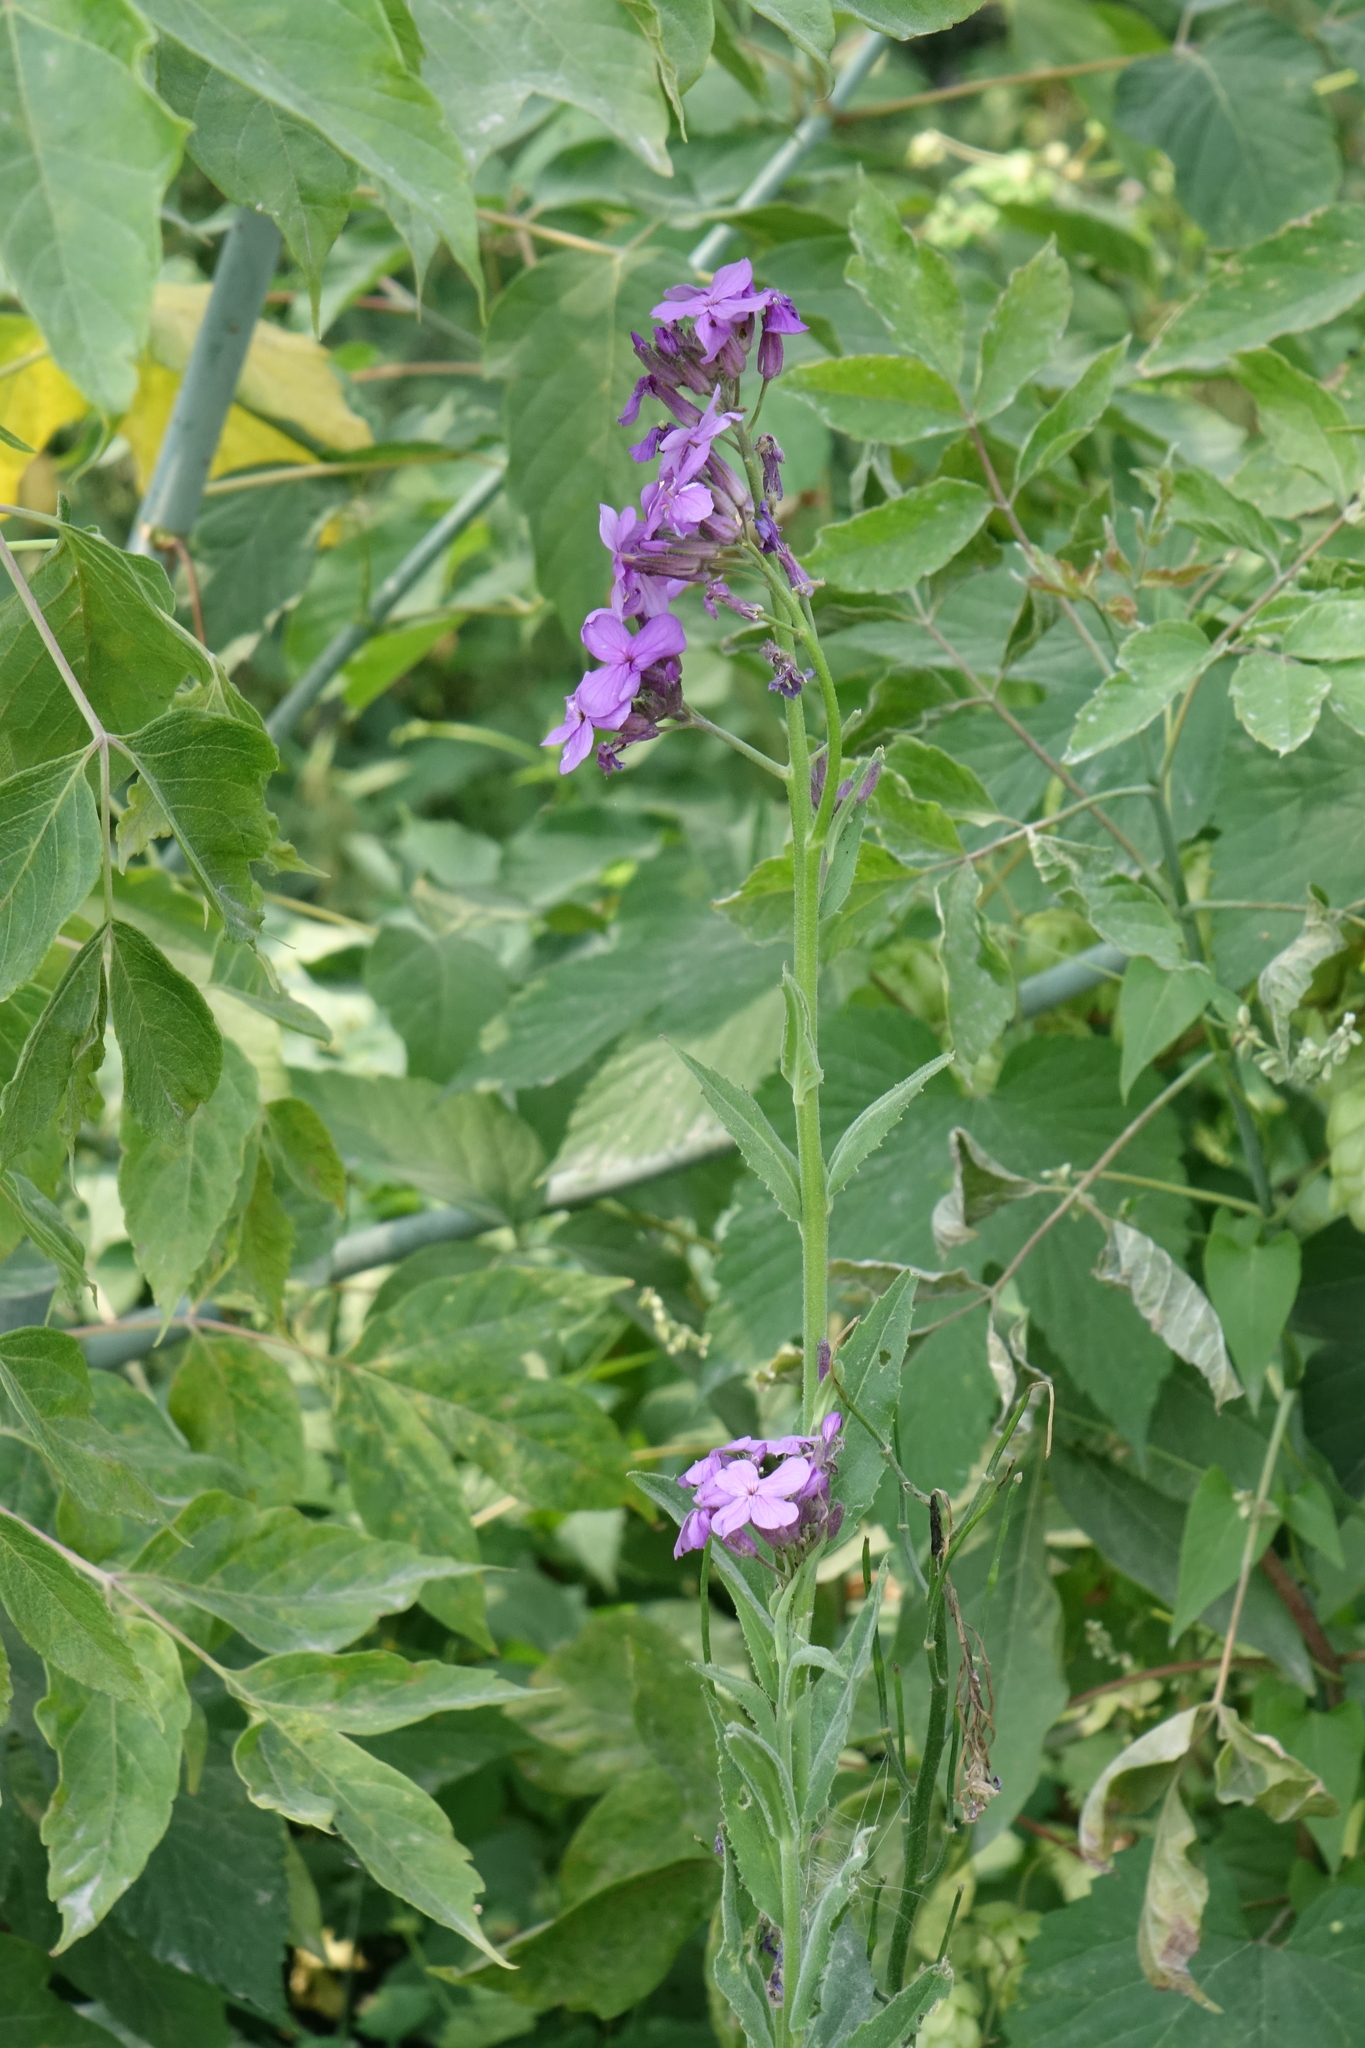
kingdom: Plantae
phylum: Tracheophyta
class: Magnoliopsida
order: Brassicales
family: Brassicaceae
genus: Hesperis
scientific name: Hesperis sibirica
